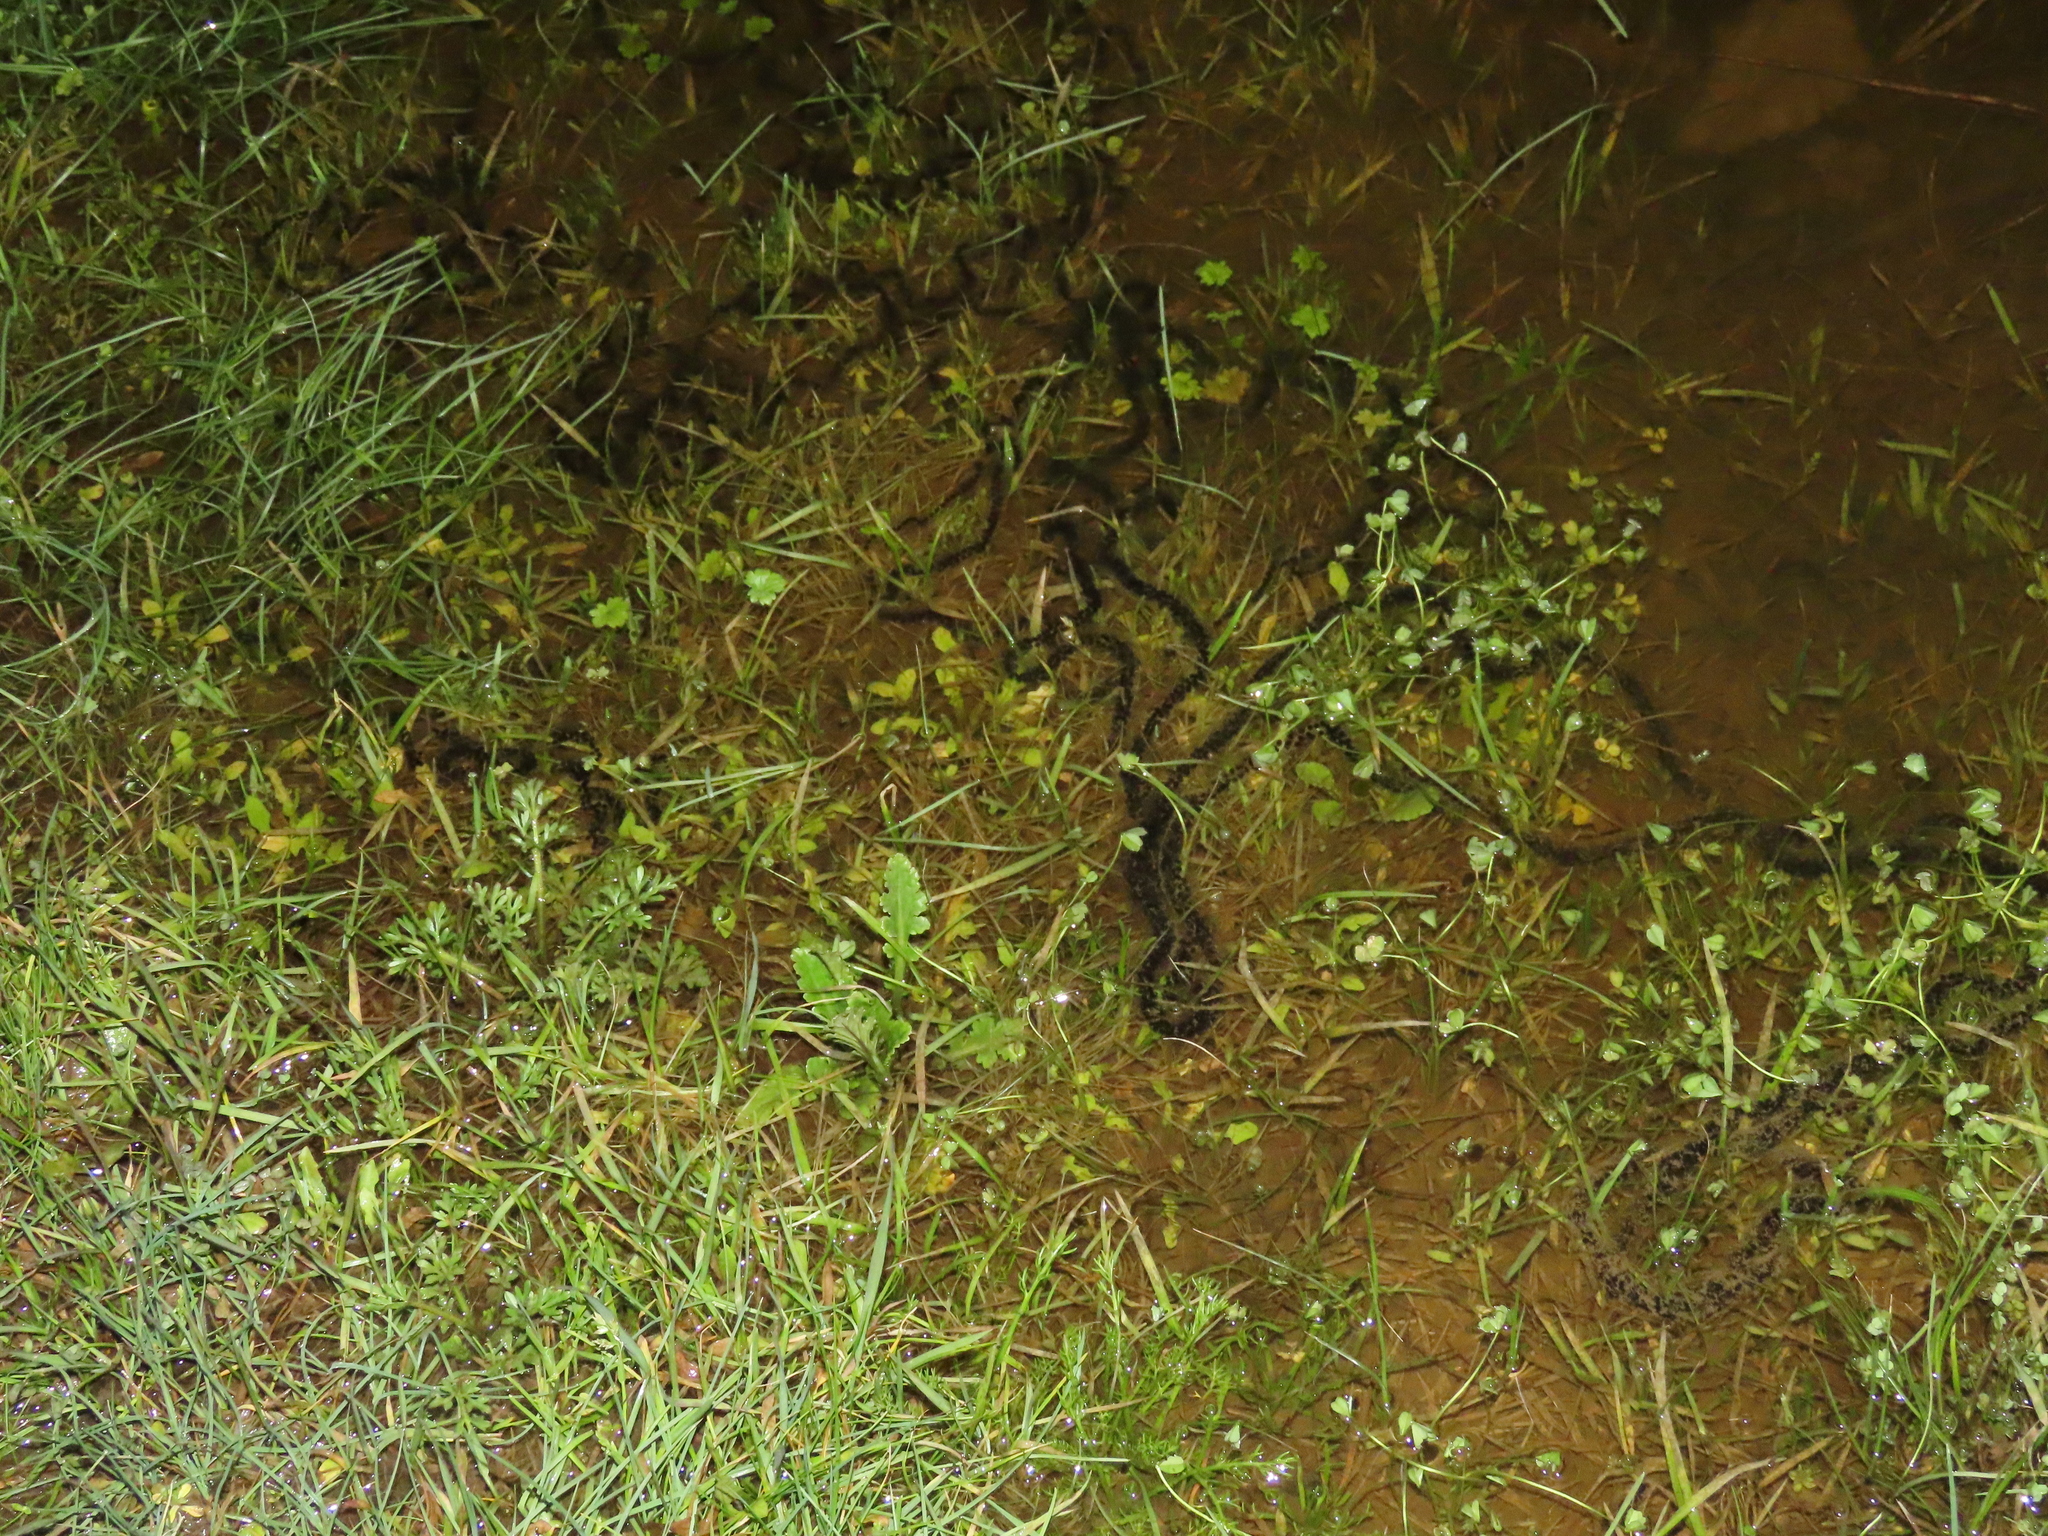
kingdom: Animalia
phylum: Chordata
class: Amphibia
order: Anura
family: Bufonidae
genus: Epidalea
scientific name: Epidalea calamita
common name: Natterjack toad
